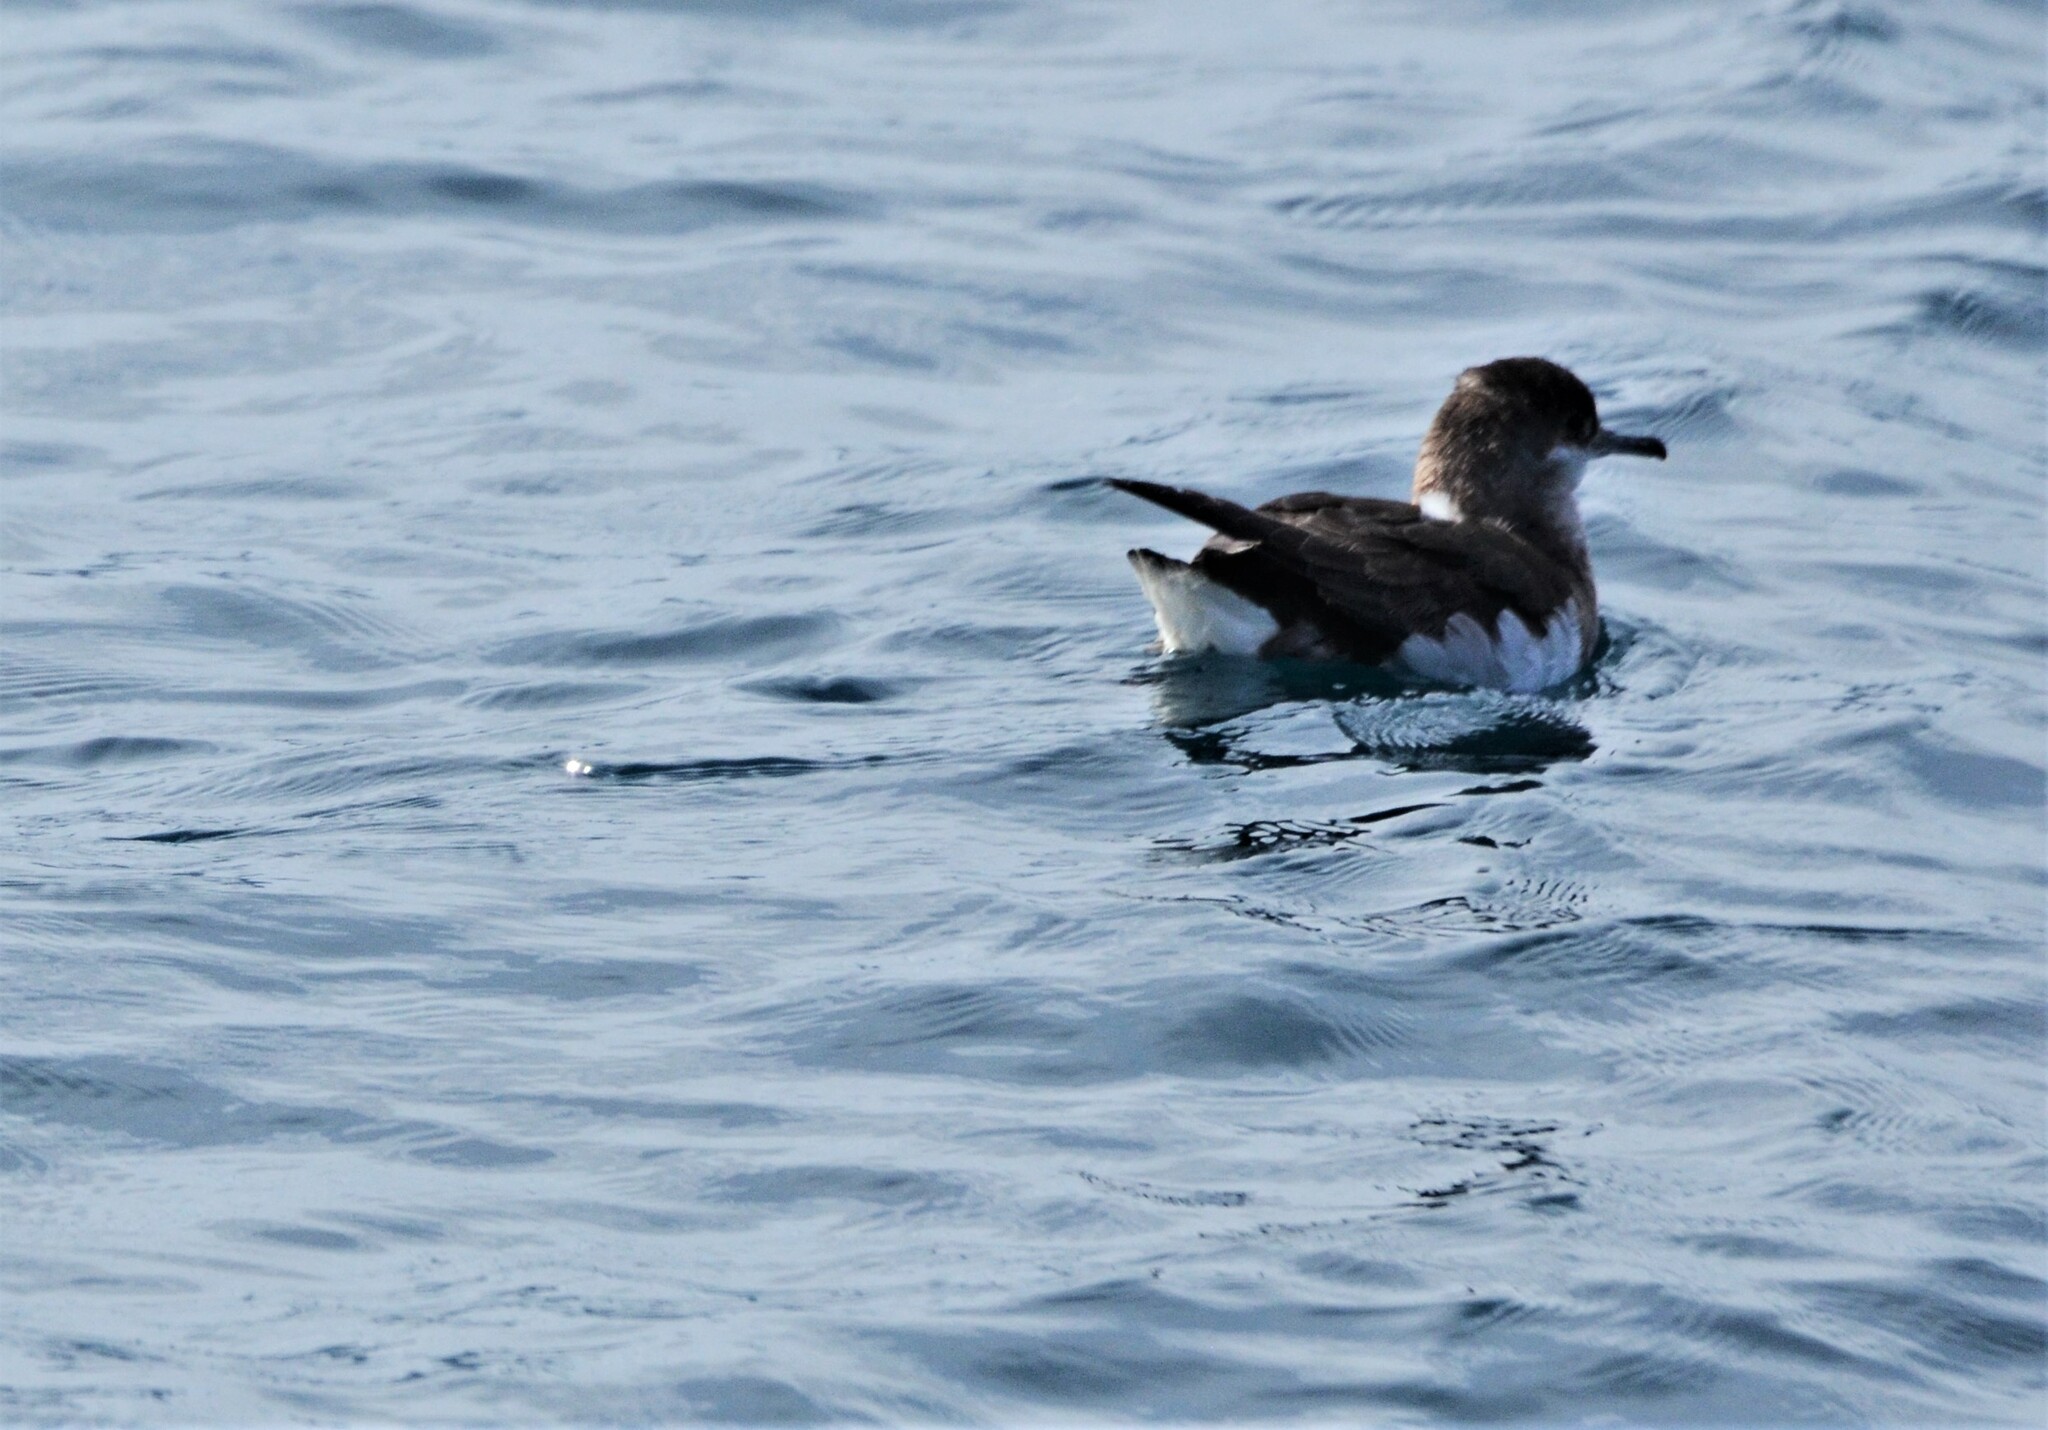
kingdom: Animalia
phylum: Chordata
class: Aves
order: Procellariiformes
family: Procellariidae
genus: Puffinus
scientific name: Puffinus gavia
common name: Fluttering shearwater
